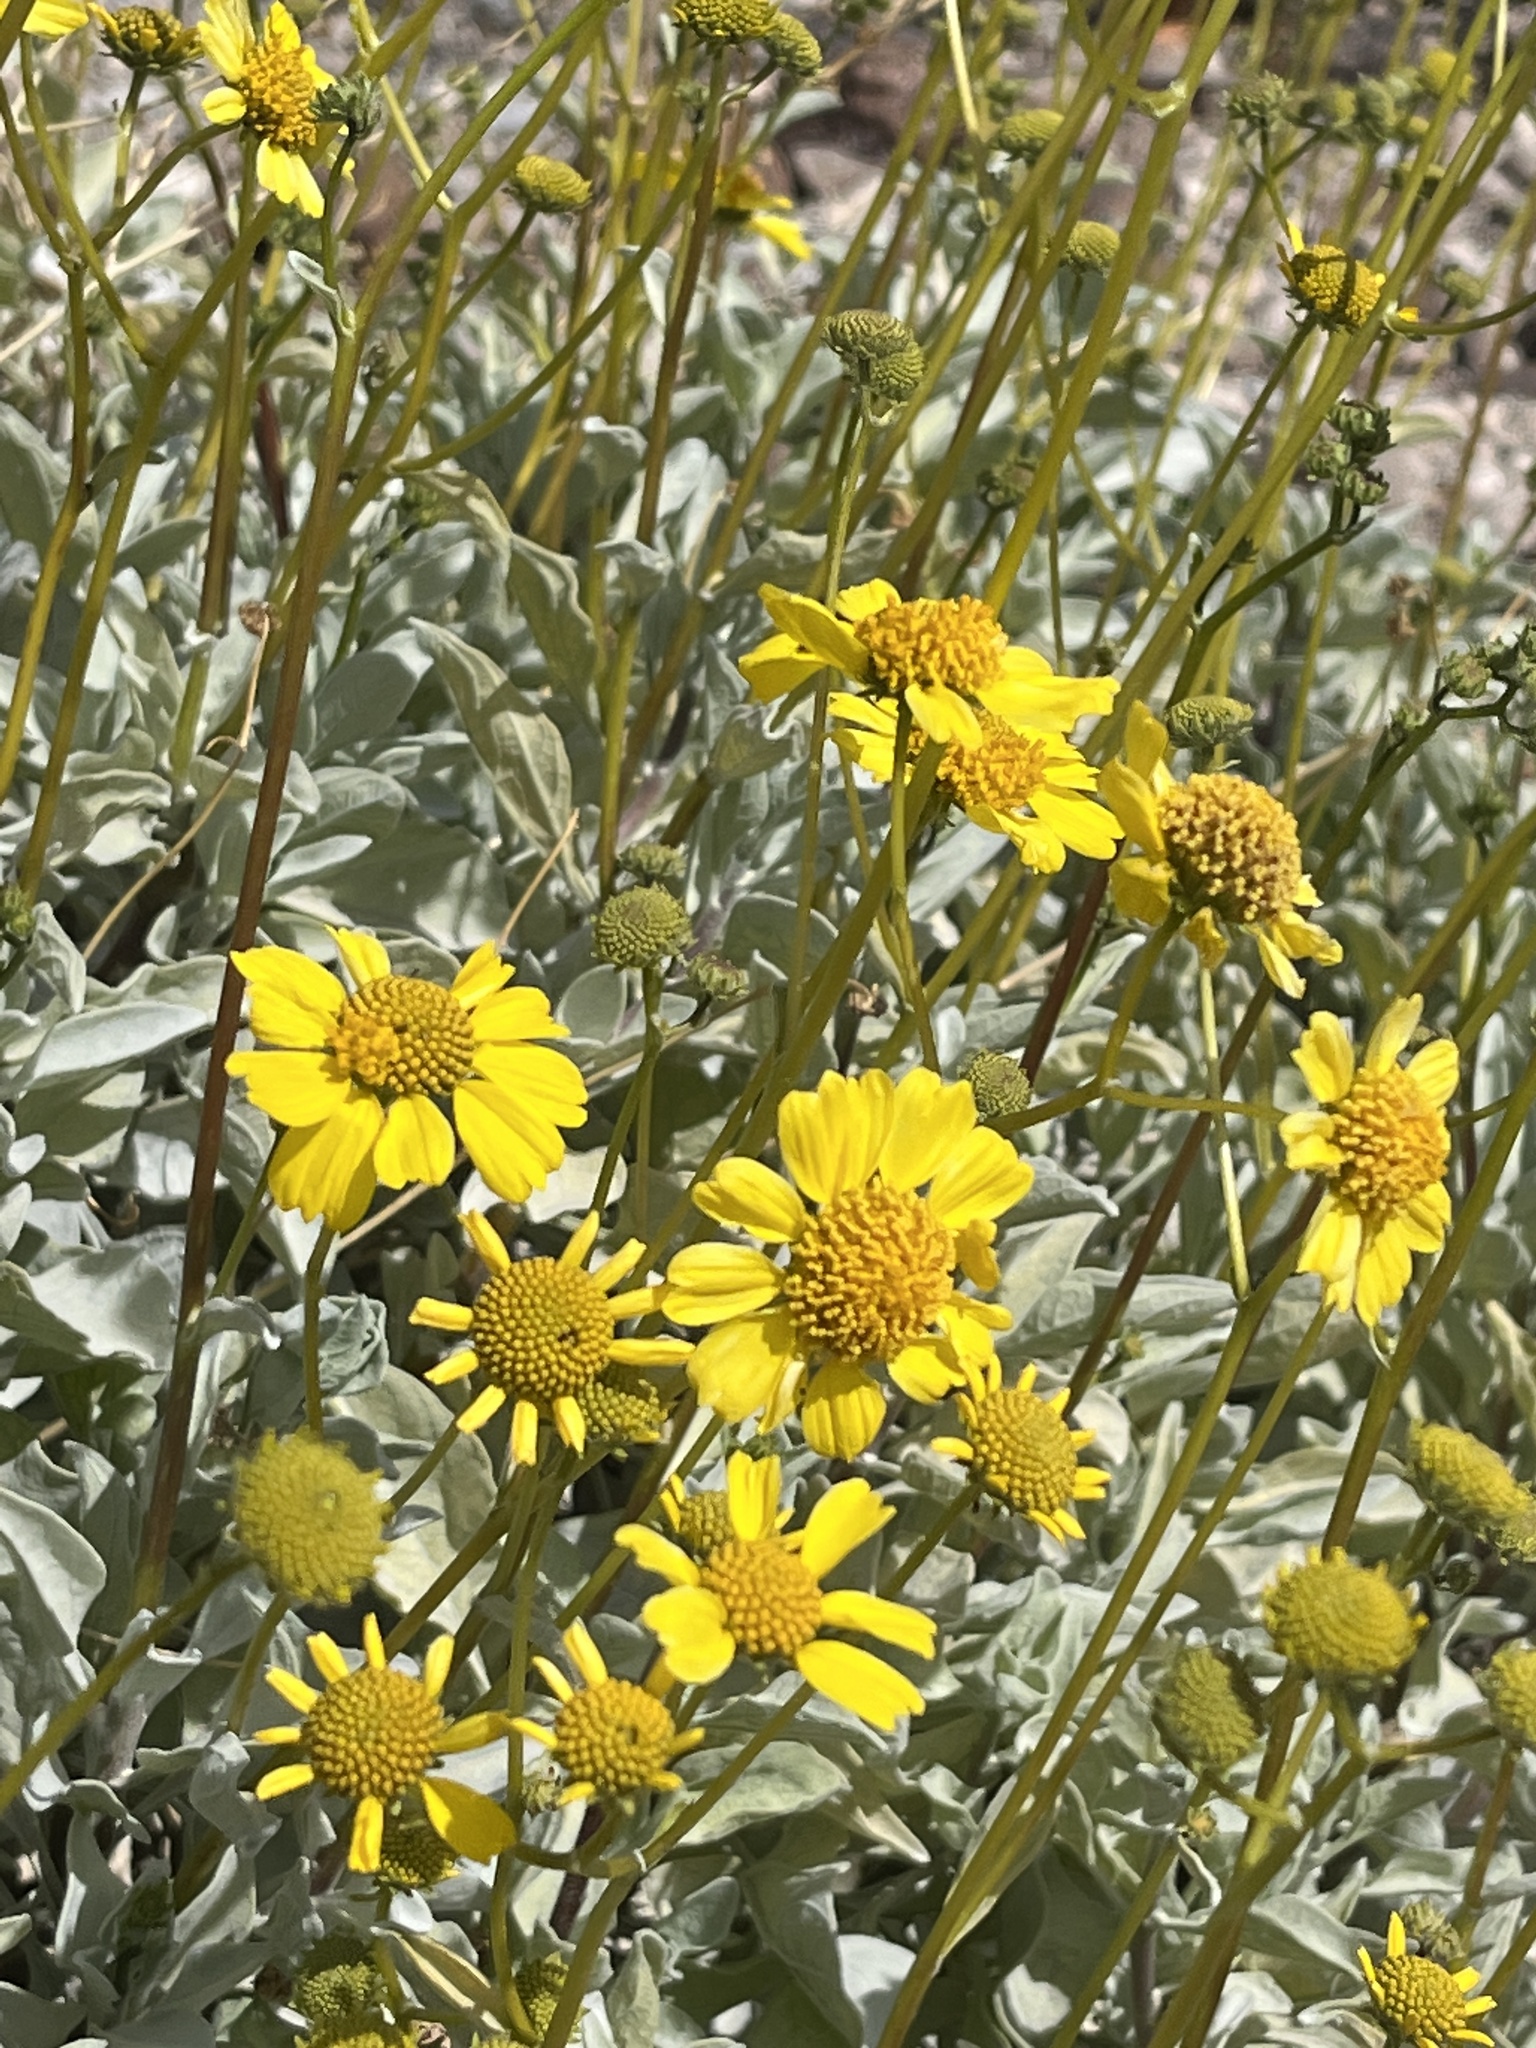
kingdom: Plantae
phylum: Tracheophyta
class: Magnoliopsida
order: Asterales
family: Asteraceae
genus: Encelia
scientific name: Encelia farinosa
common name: Brittlebush
